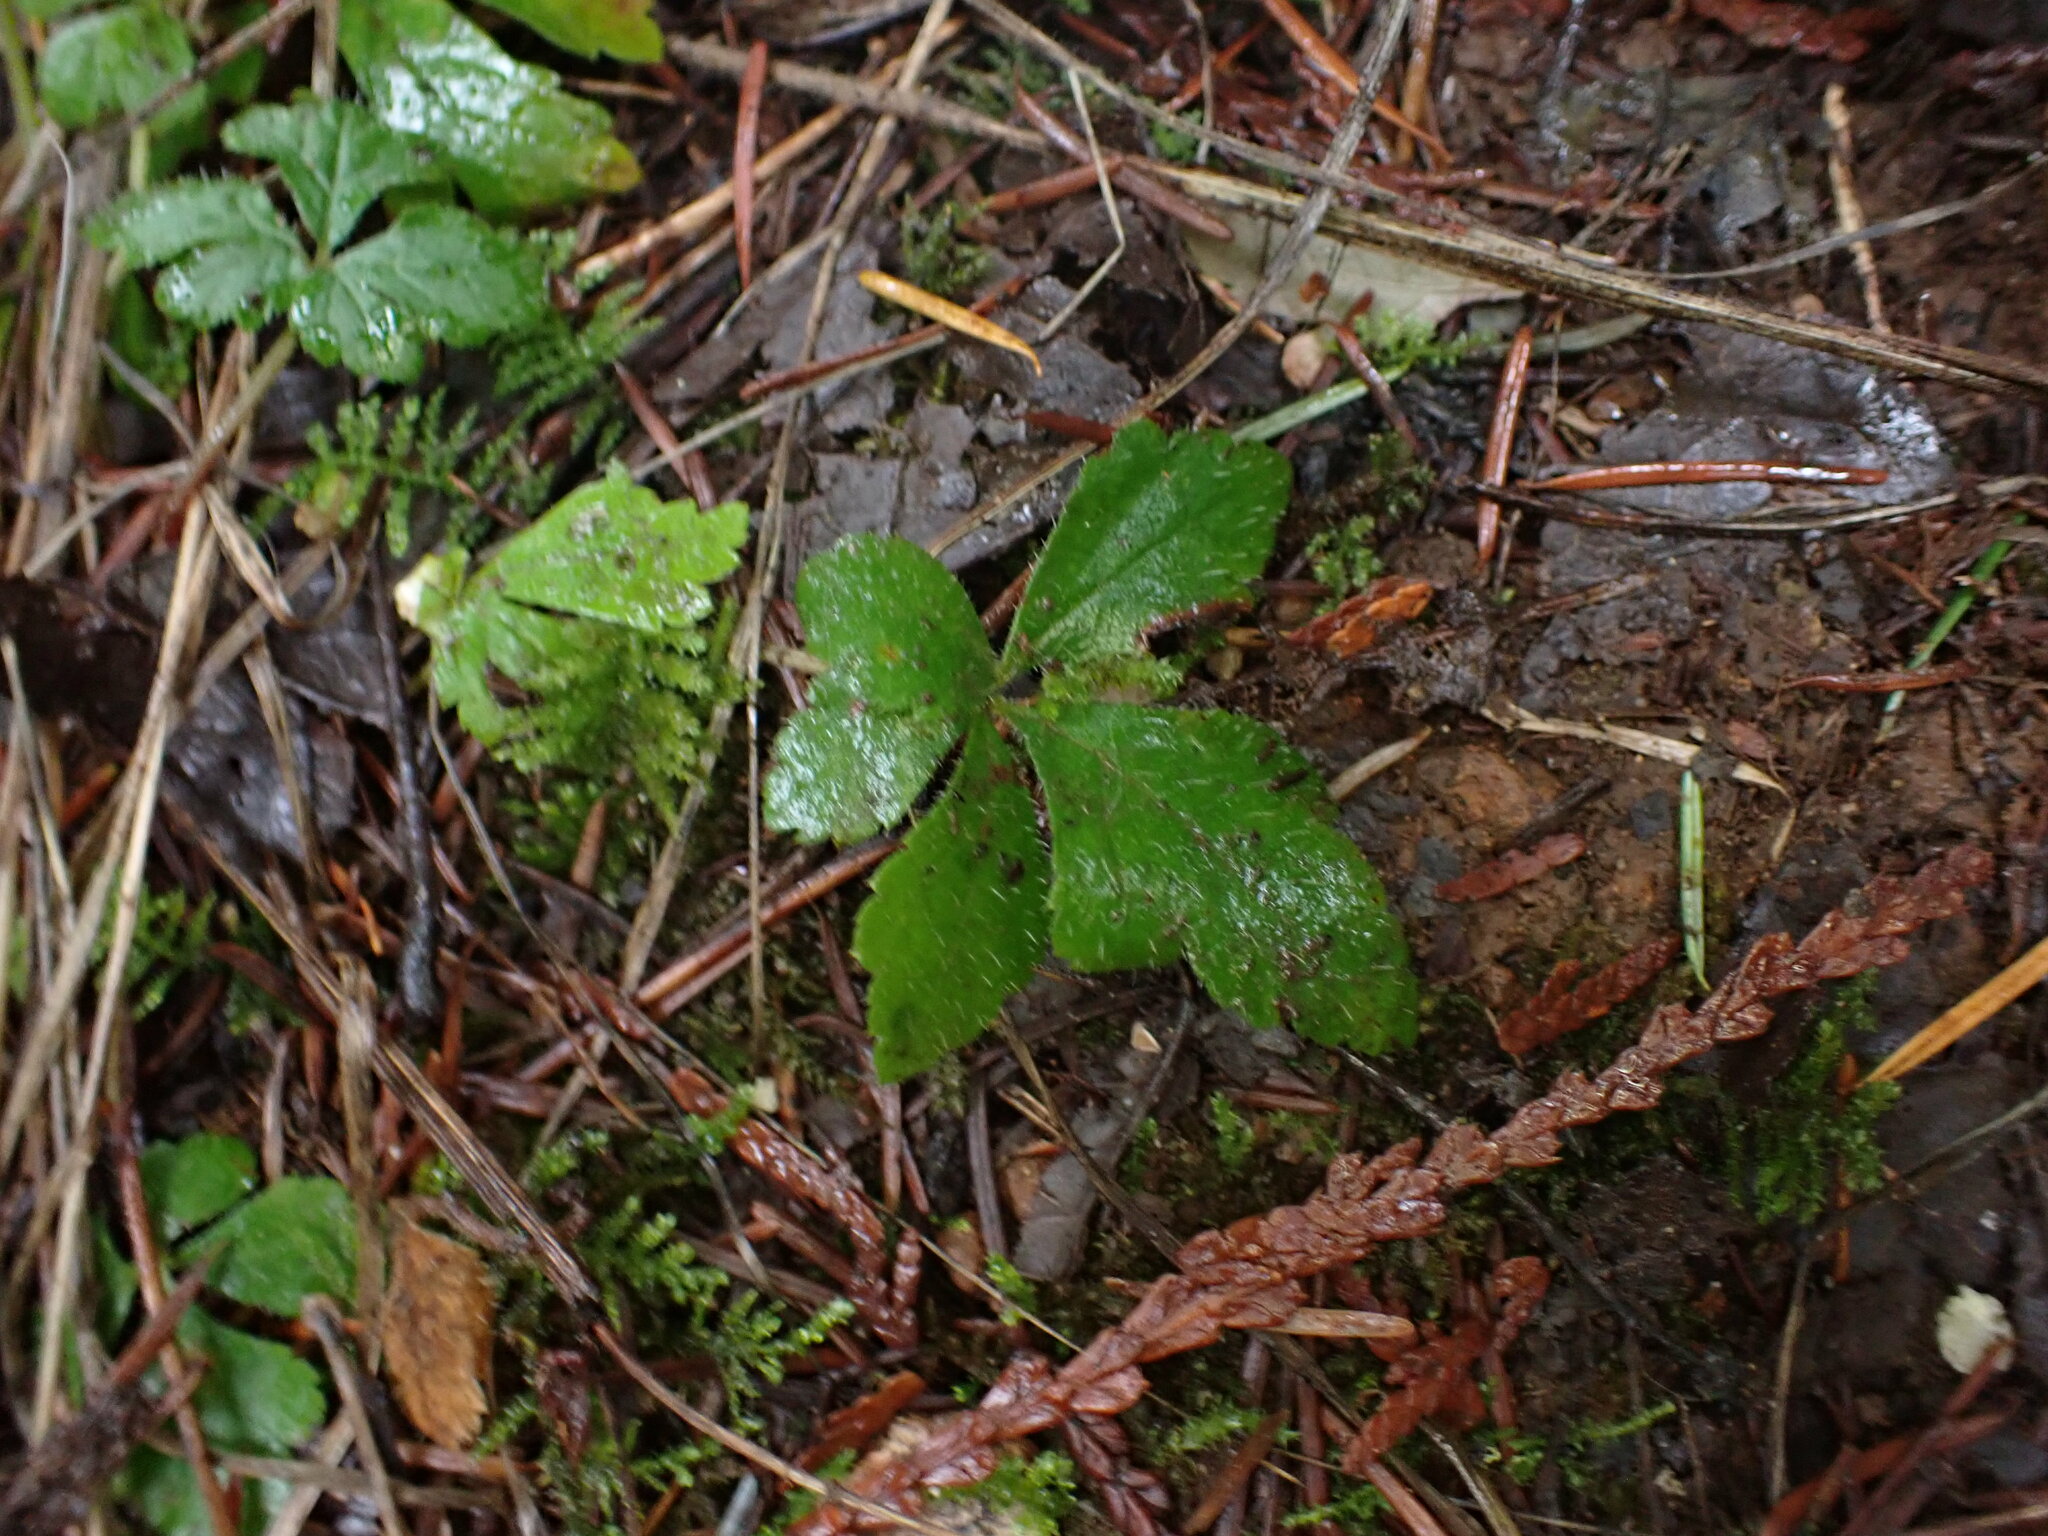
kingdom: Plantae
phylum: Tracheophyta
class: Magnoliopsida
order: Saxifragales
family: Saxifragaceae
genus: Tiarella
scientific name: Tiarella trifoliata
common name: Sugar-scoop
